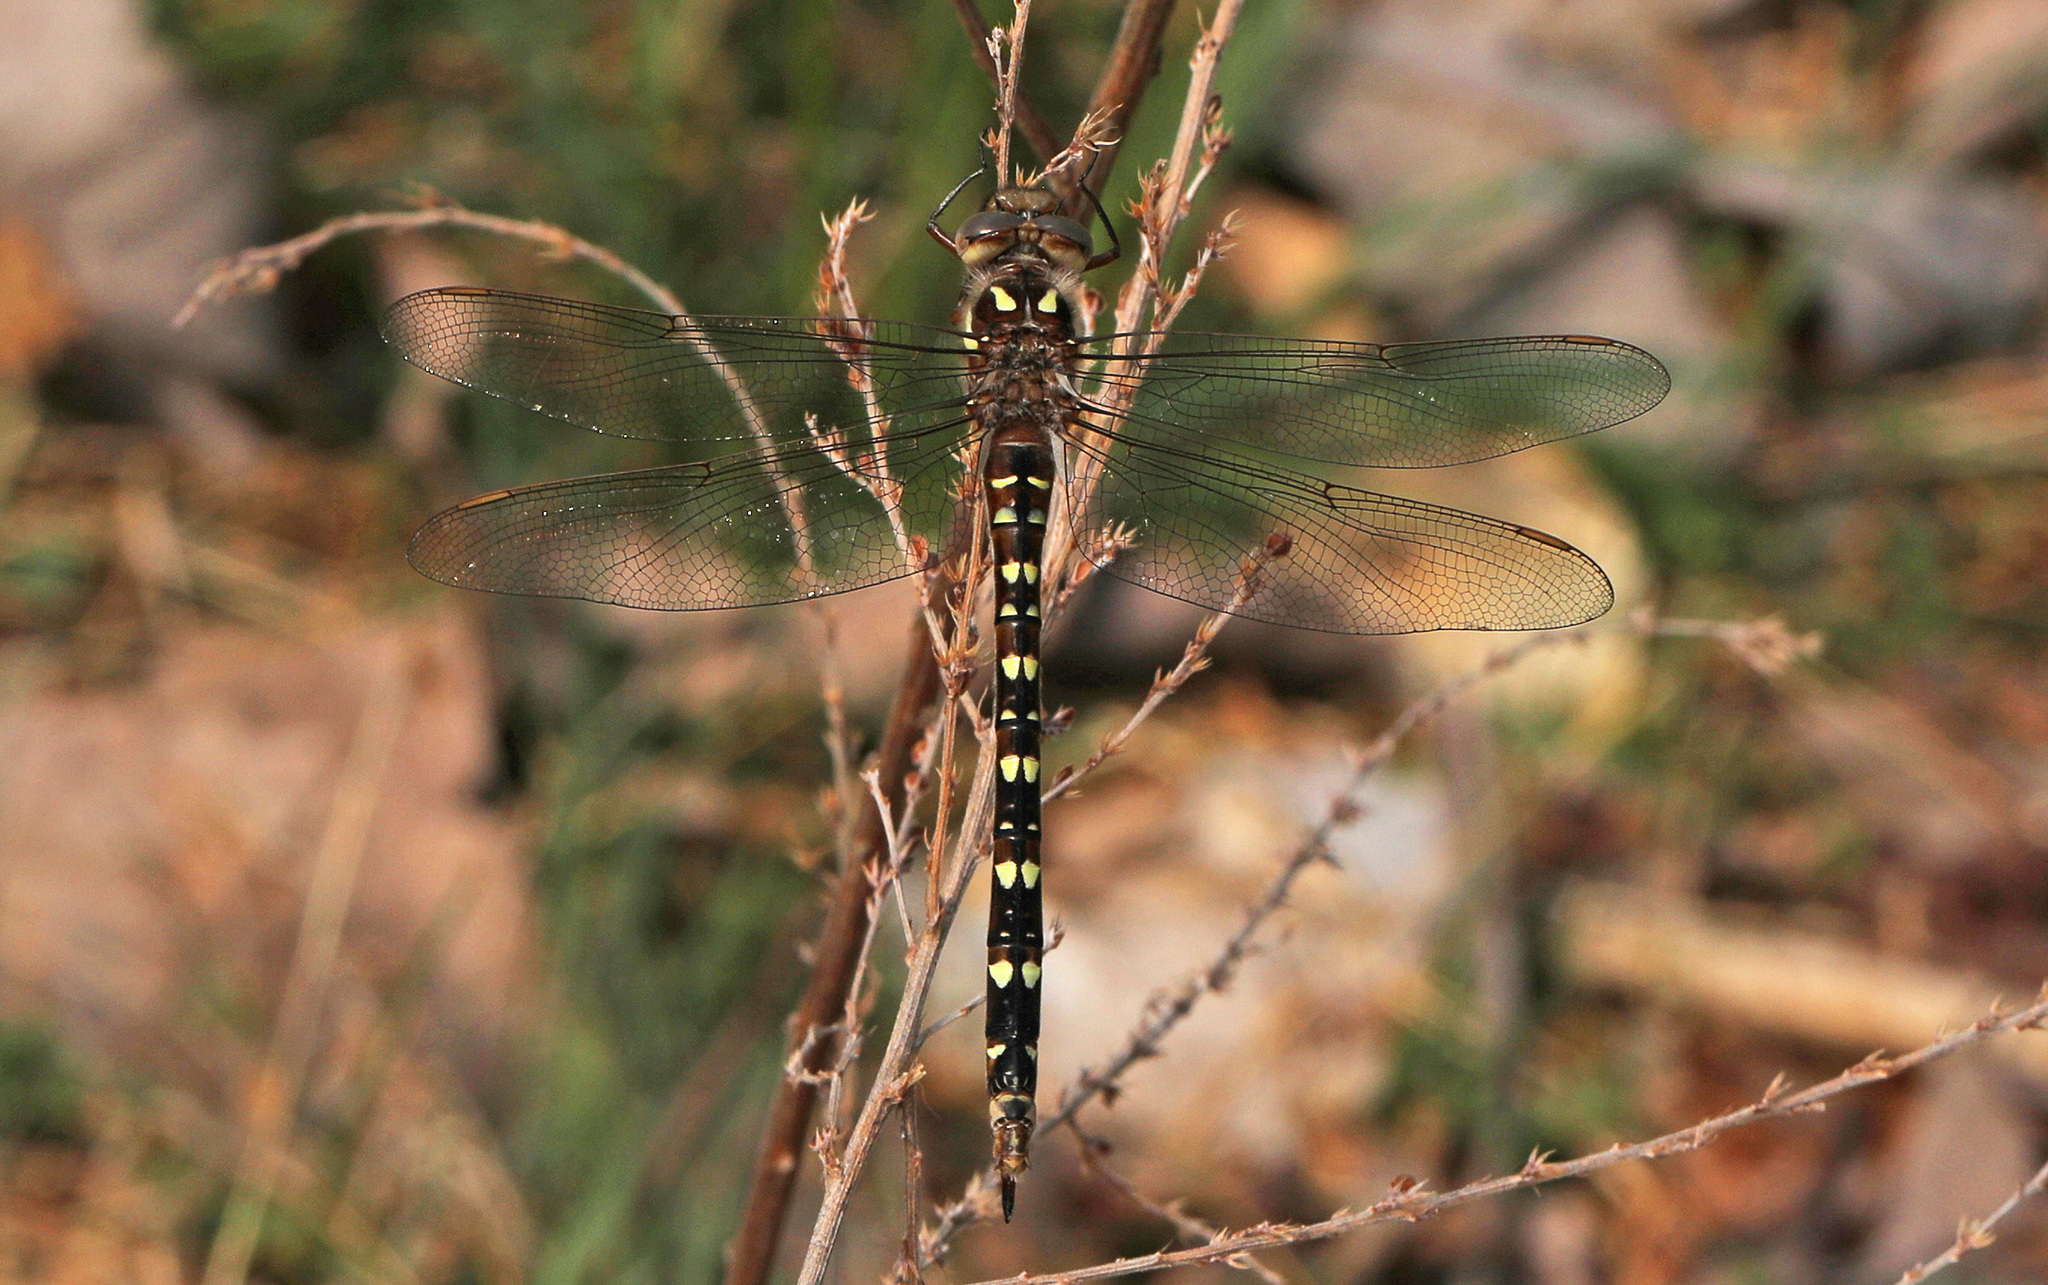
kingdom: Animalia
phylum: Arthropoda
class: Insecta
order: Odonata
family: Cordulegastridae
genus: Cordulegaster
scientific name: Cordulegaster maculata
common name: Twin-spotted spiketail
